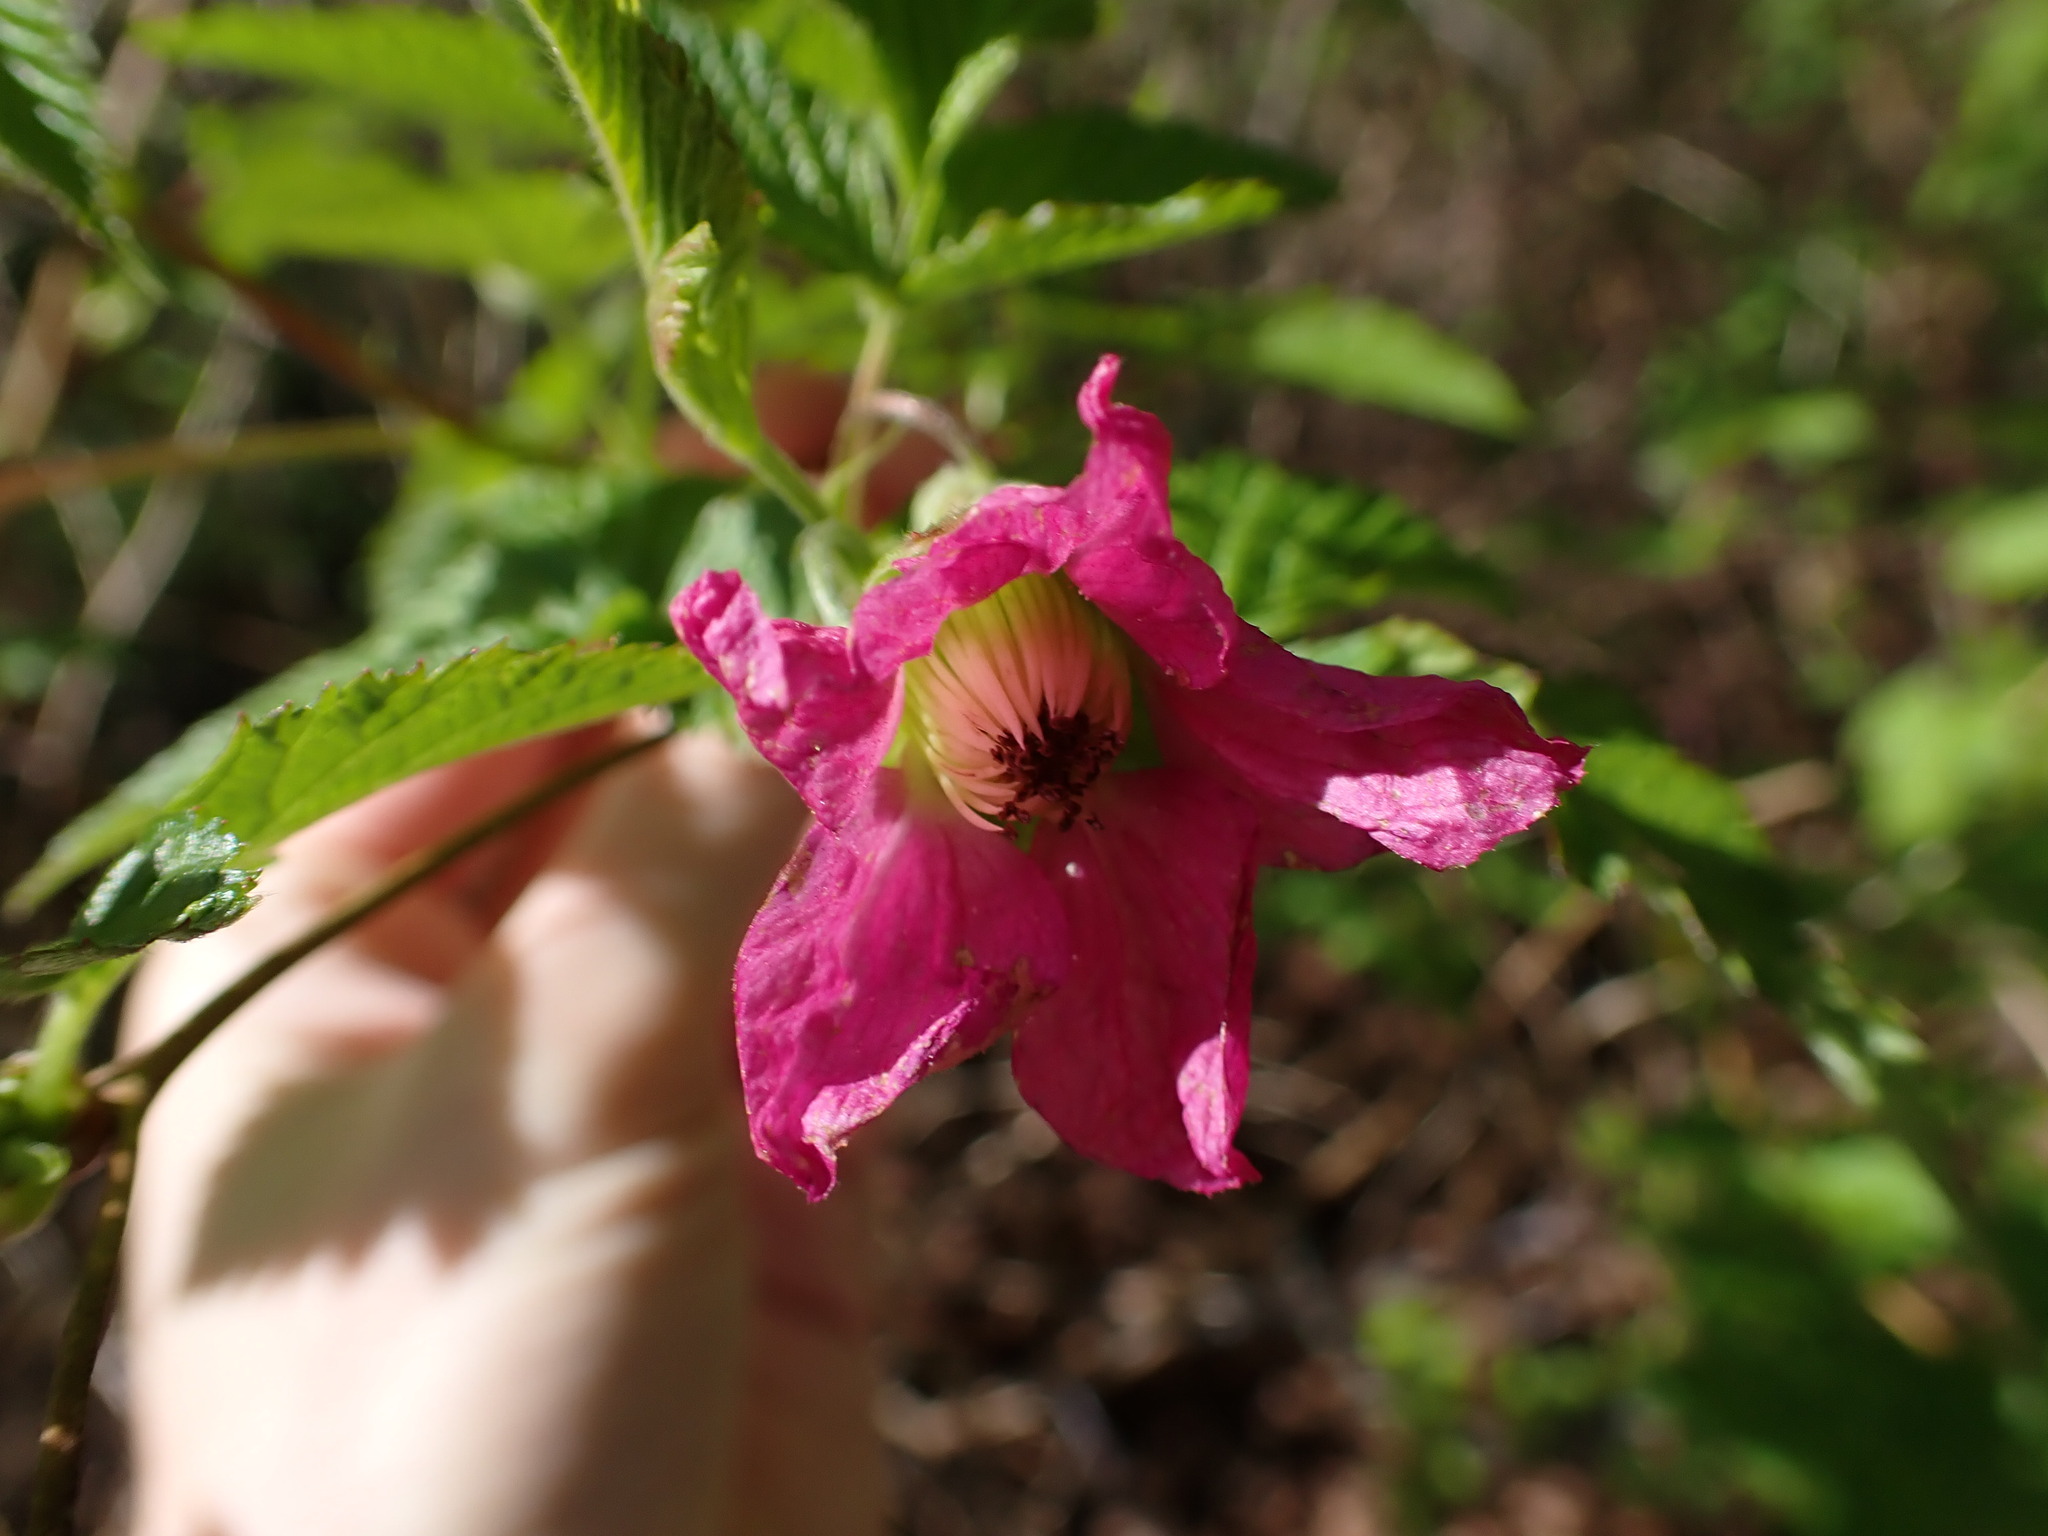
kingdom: Plantae
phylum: Tracheophyta
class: Magnoliopsida
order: Rosales
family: Rosaceae
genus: Rubus
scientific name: Rubus spectabilis
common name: Salmonberry
